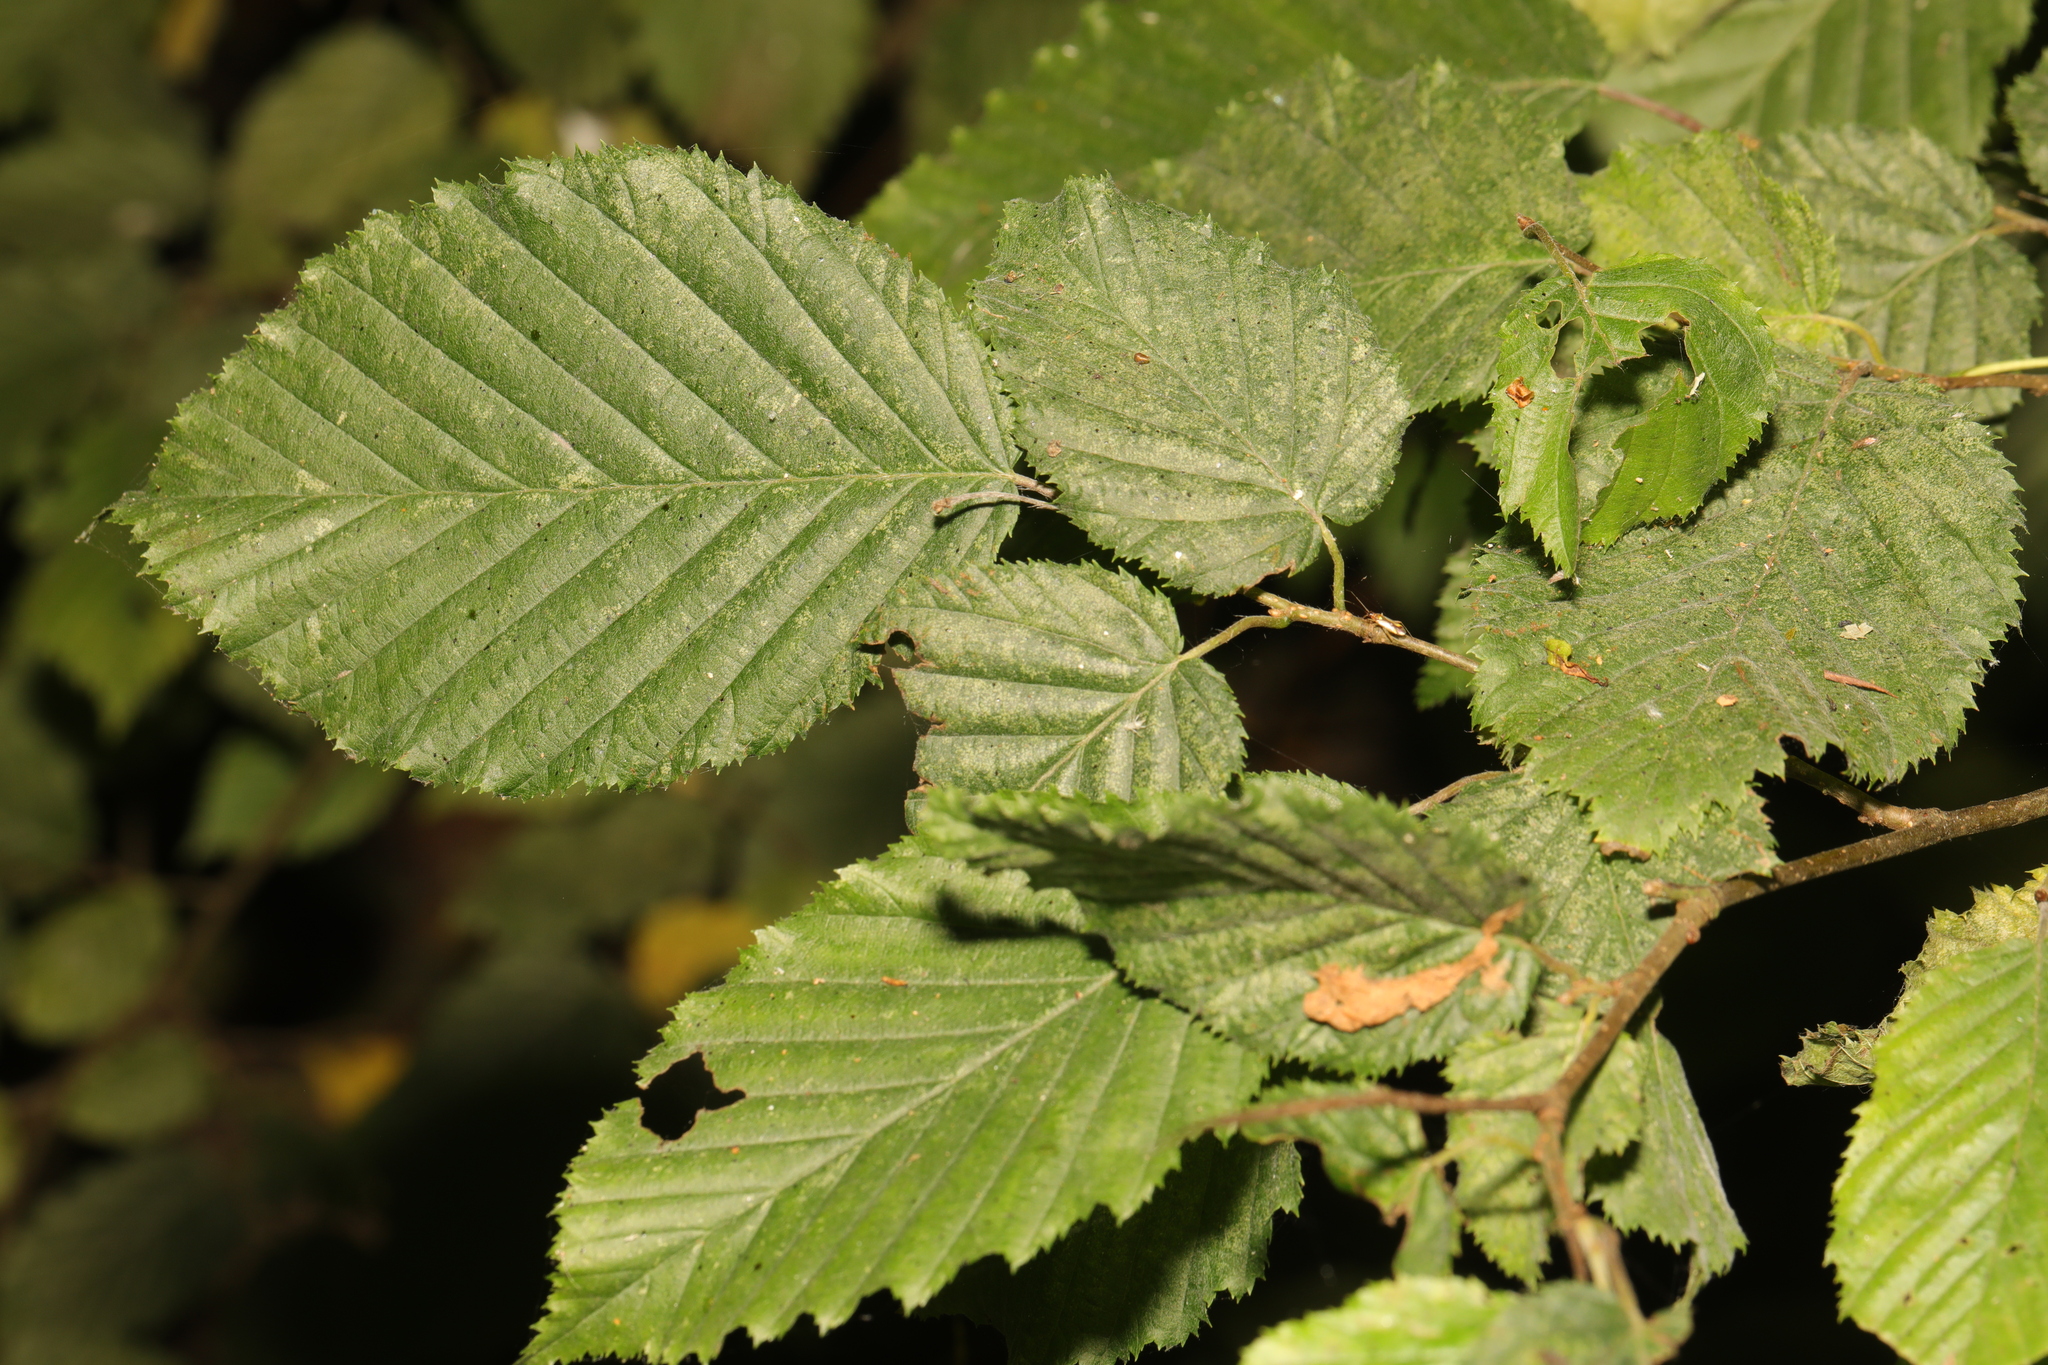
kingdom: Plantae
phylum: Tracheophyta
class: Magnoliopsida
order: Fagales
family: Betulaceae
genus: Carpinus
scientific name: Carpinus betulus
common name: Hornbeam
